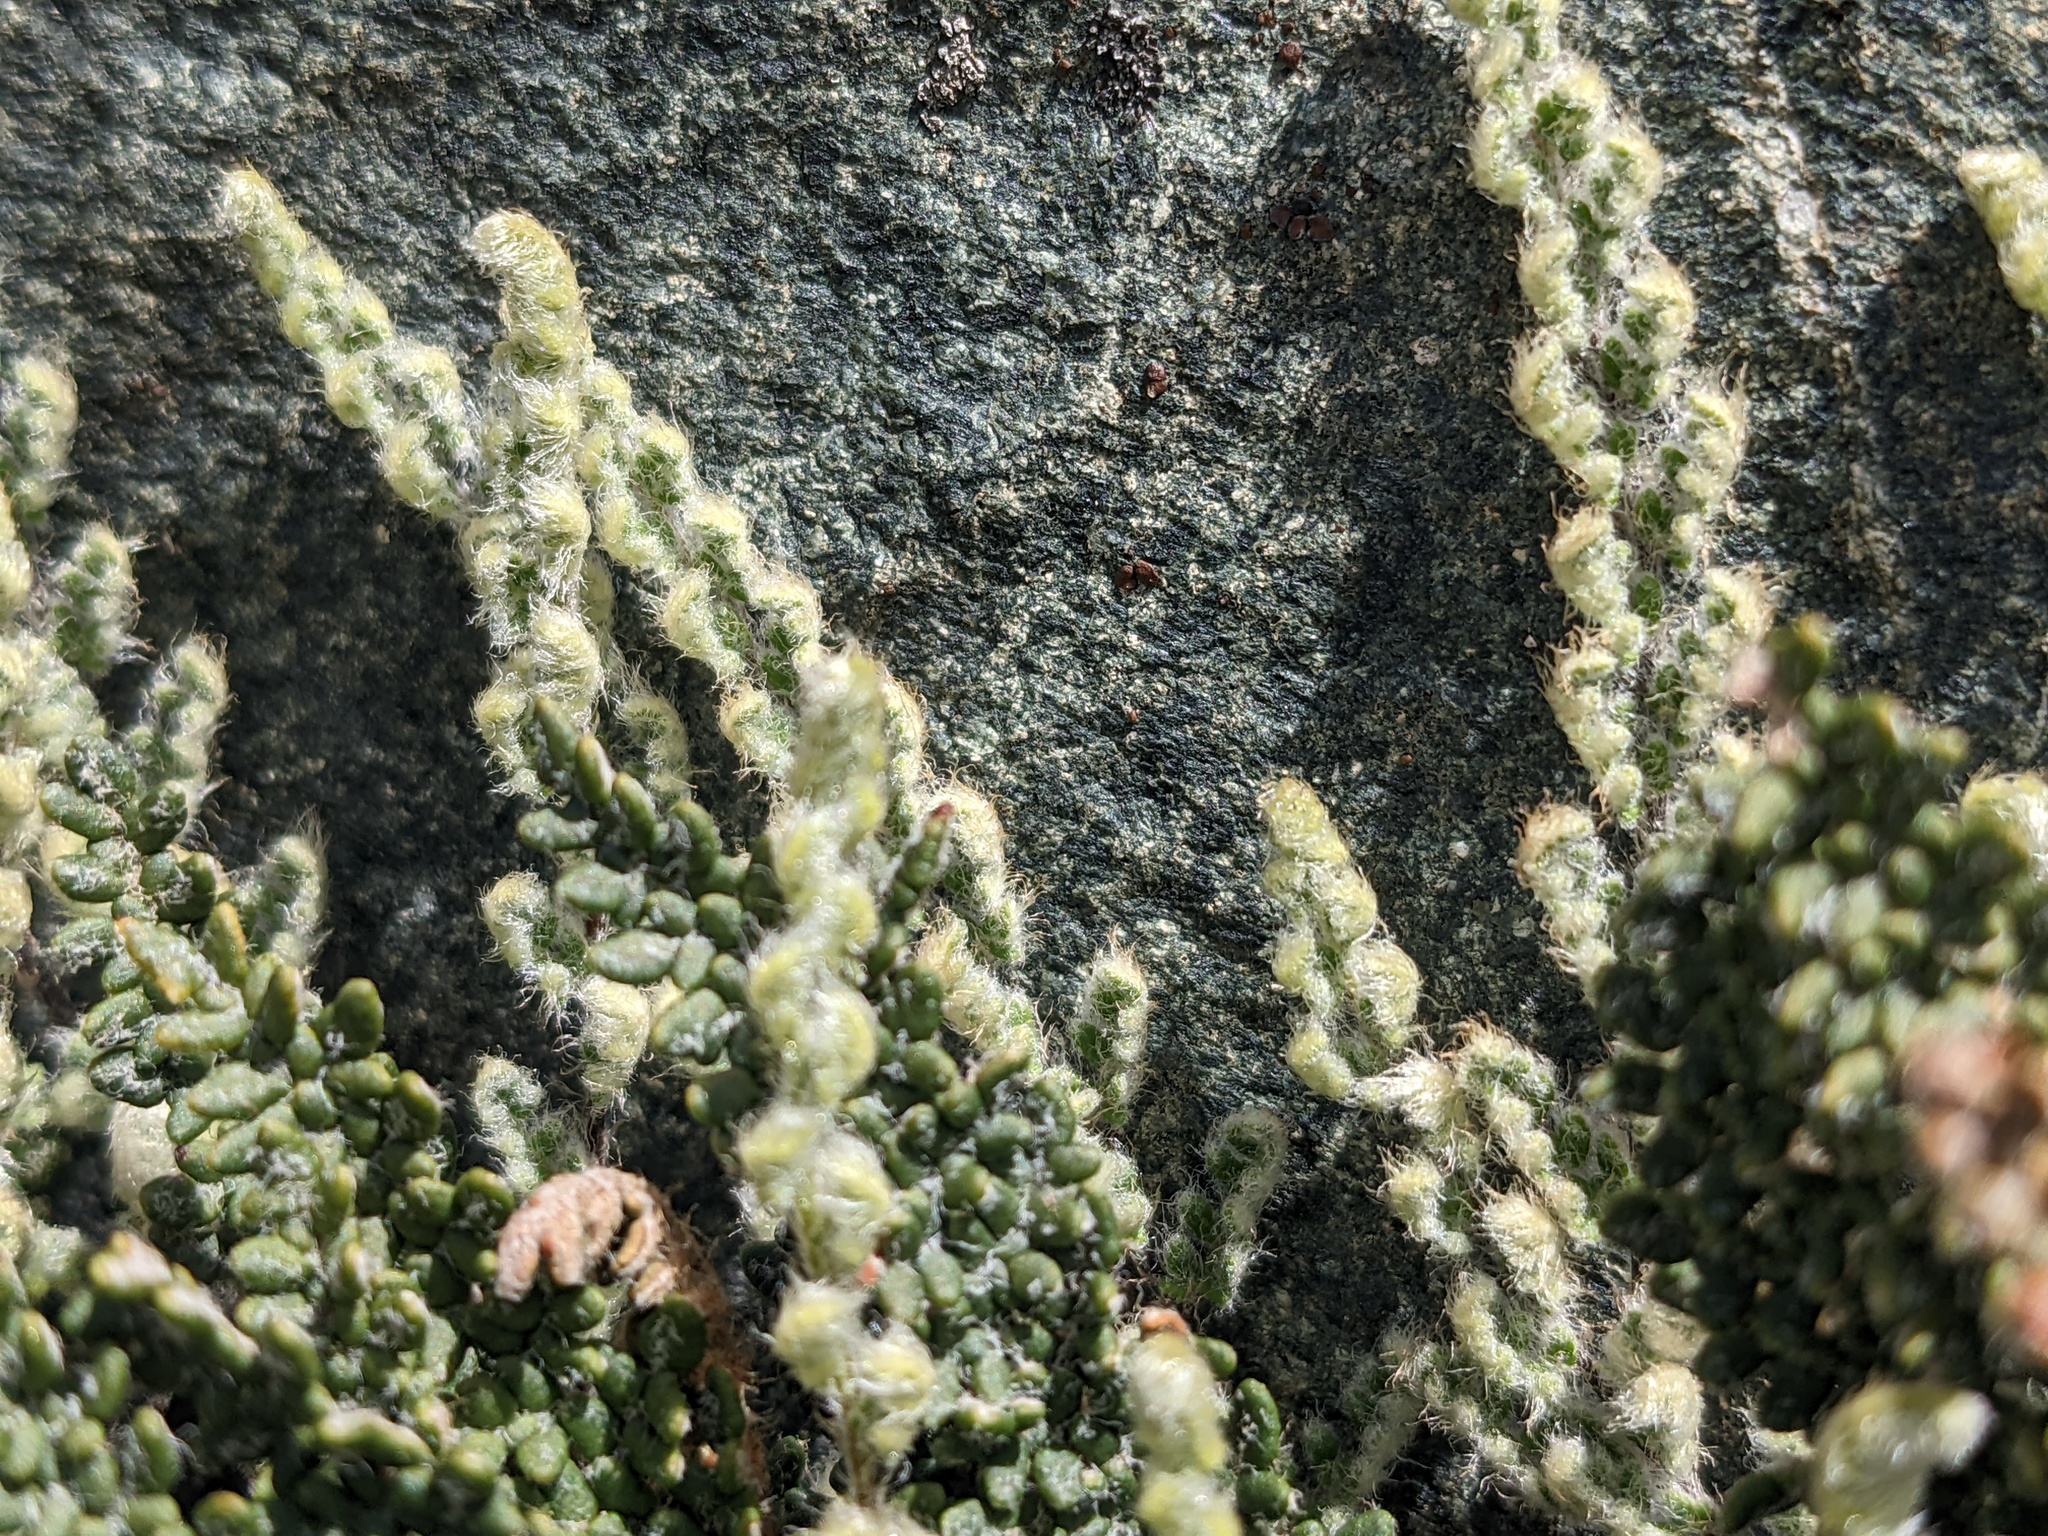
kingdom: Plantae
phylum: Tracheophyta
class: Polypodiopsida
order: Polypodiales
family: Pteridaceae
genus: Myriopteris
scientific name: Myriopteris gracillima
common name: Lace fern
